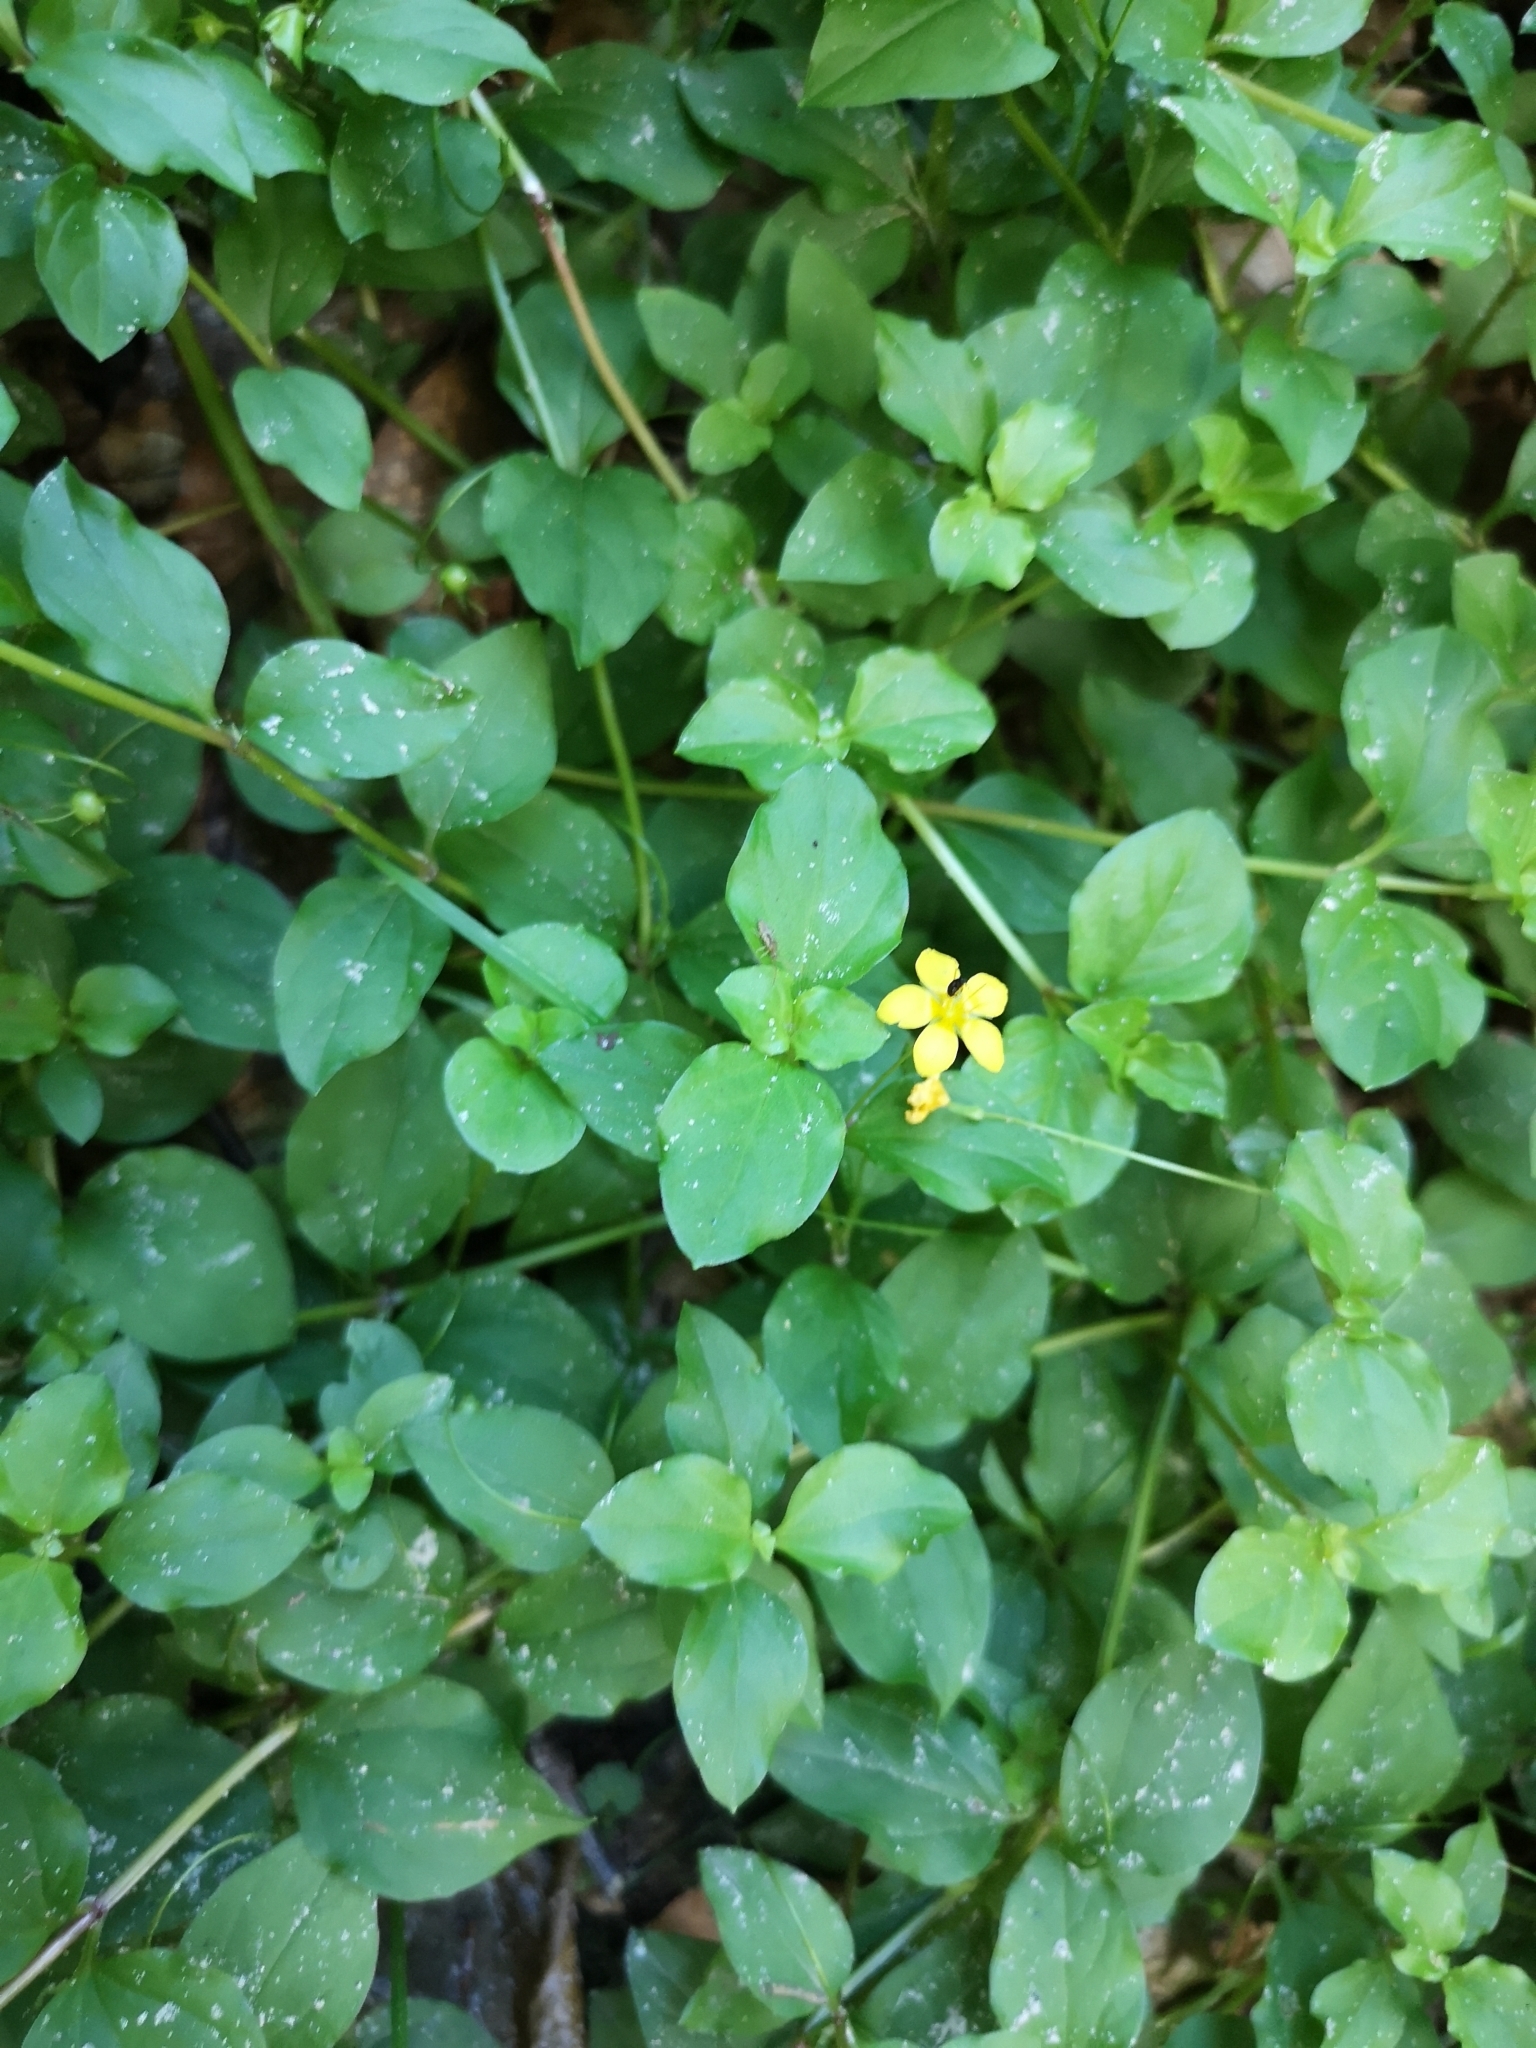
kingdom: Plantae
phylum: Tracheophyta
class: Magnoliopsida
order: Ericales
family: Primulaceae
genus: Lysimachia
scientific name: Lysimachia nemorum
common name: Yellow pimpernel
